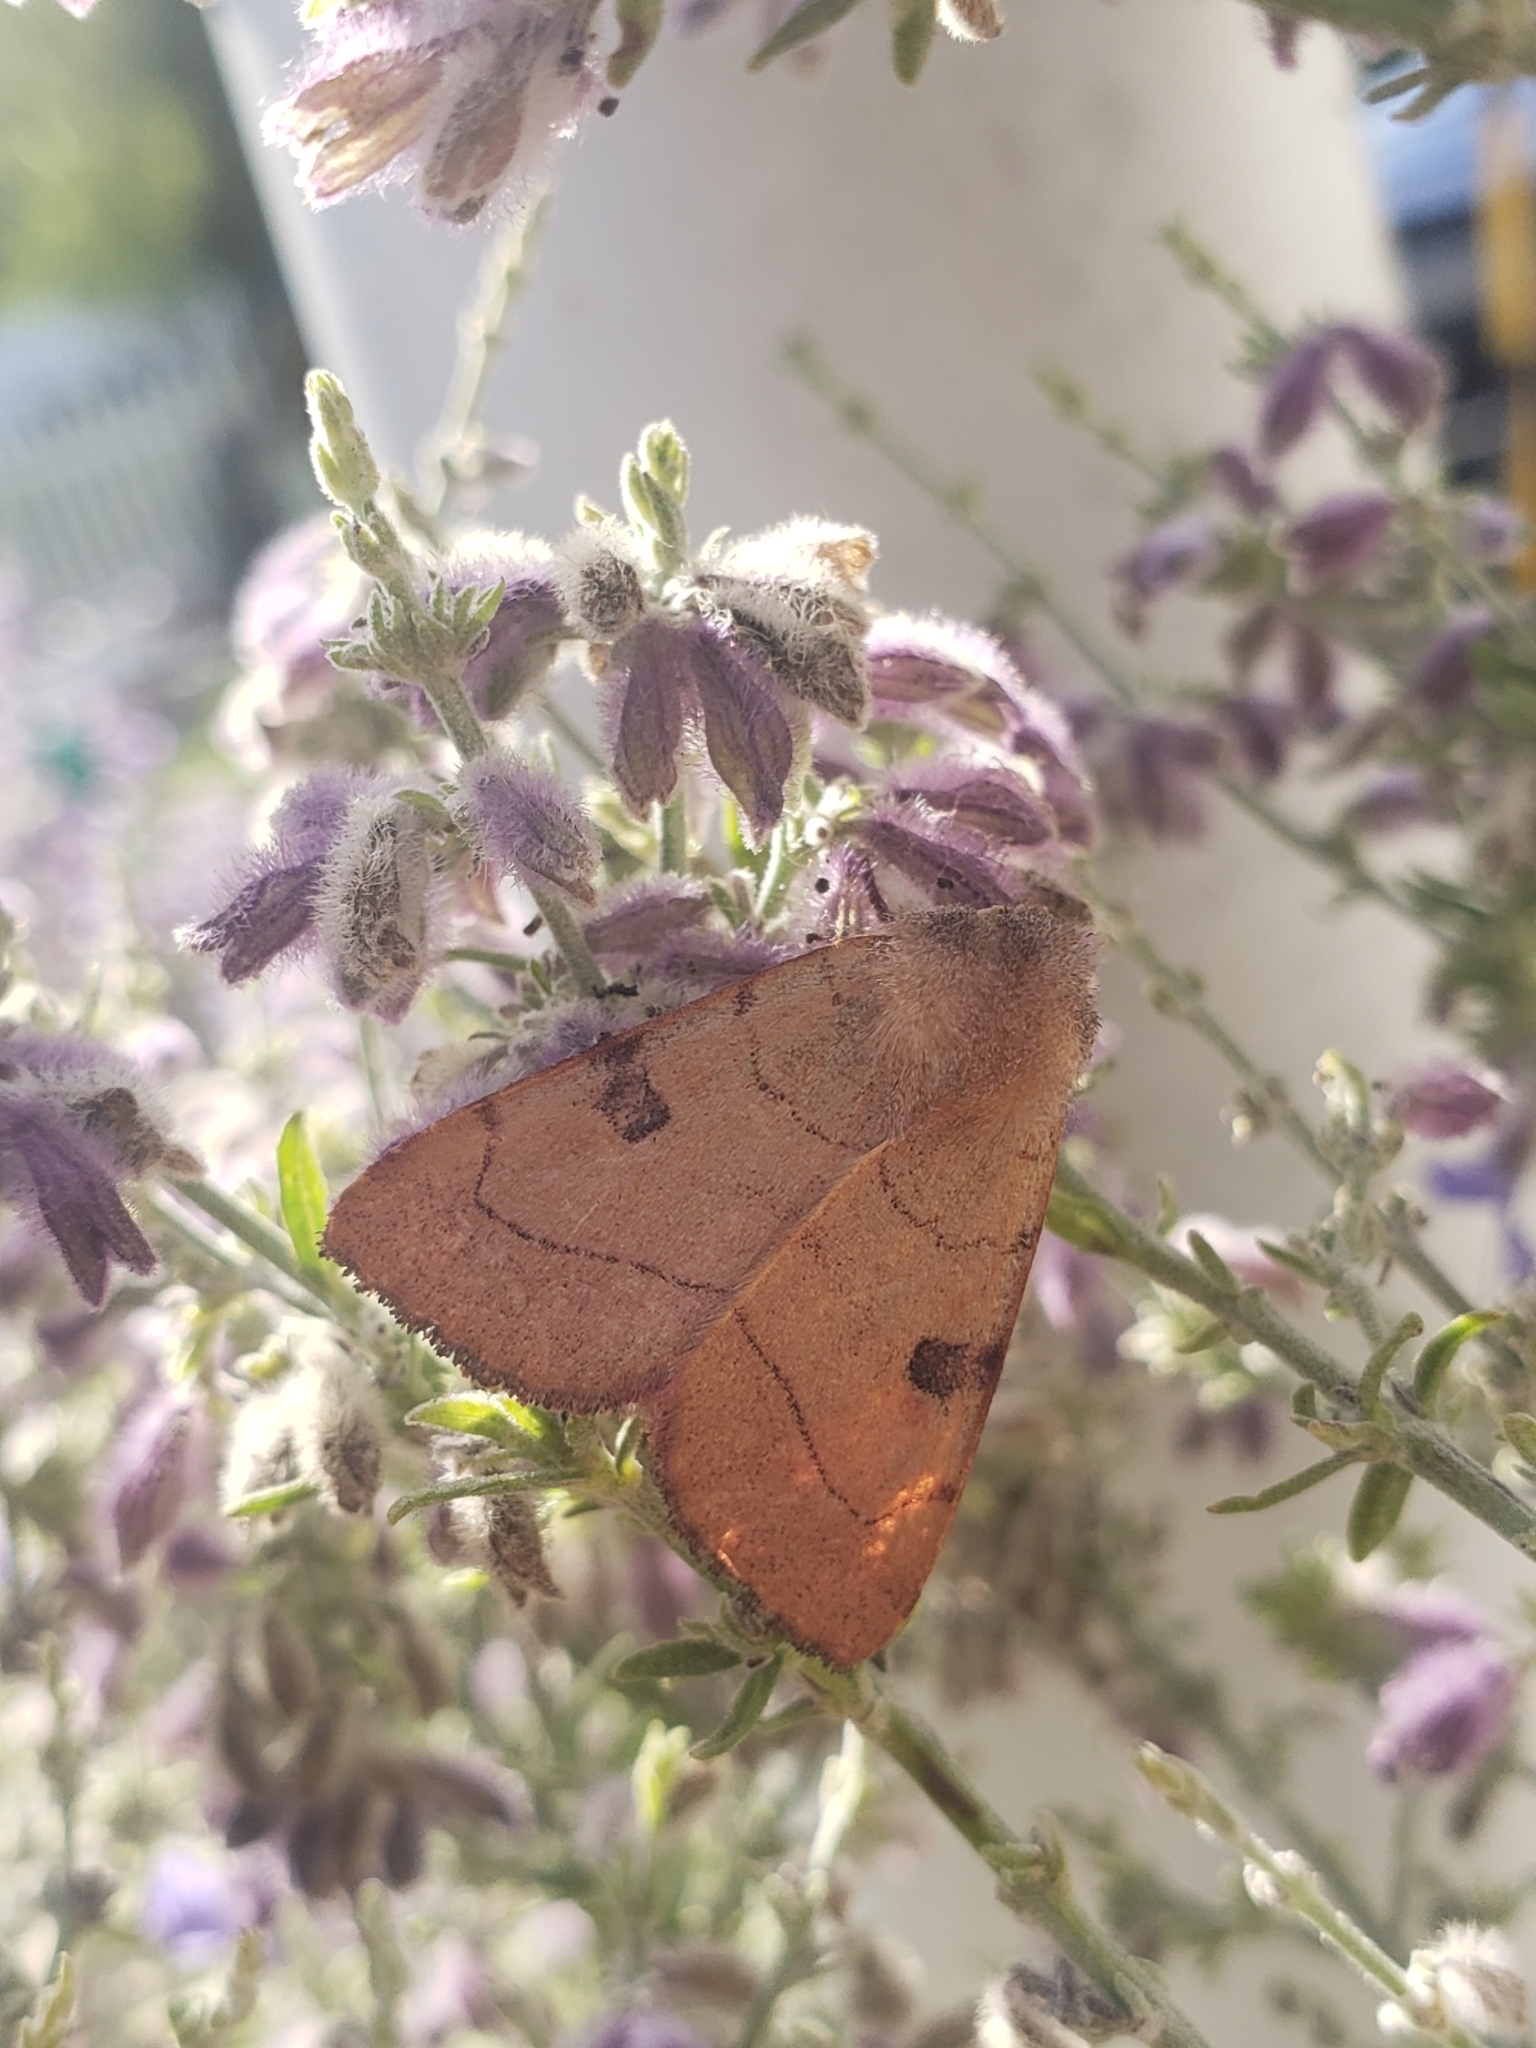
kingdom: Animalia
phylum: Arthropoda
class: Insecta
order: Lepidoptera
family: Noctuidae
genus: Choephora
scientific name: Choephora fungorum
